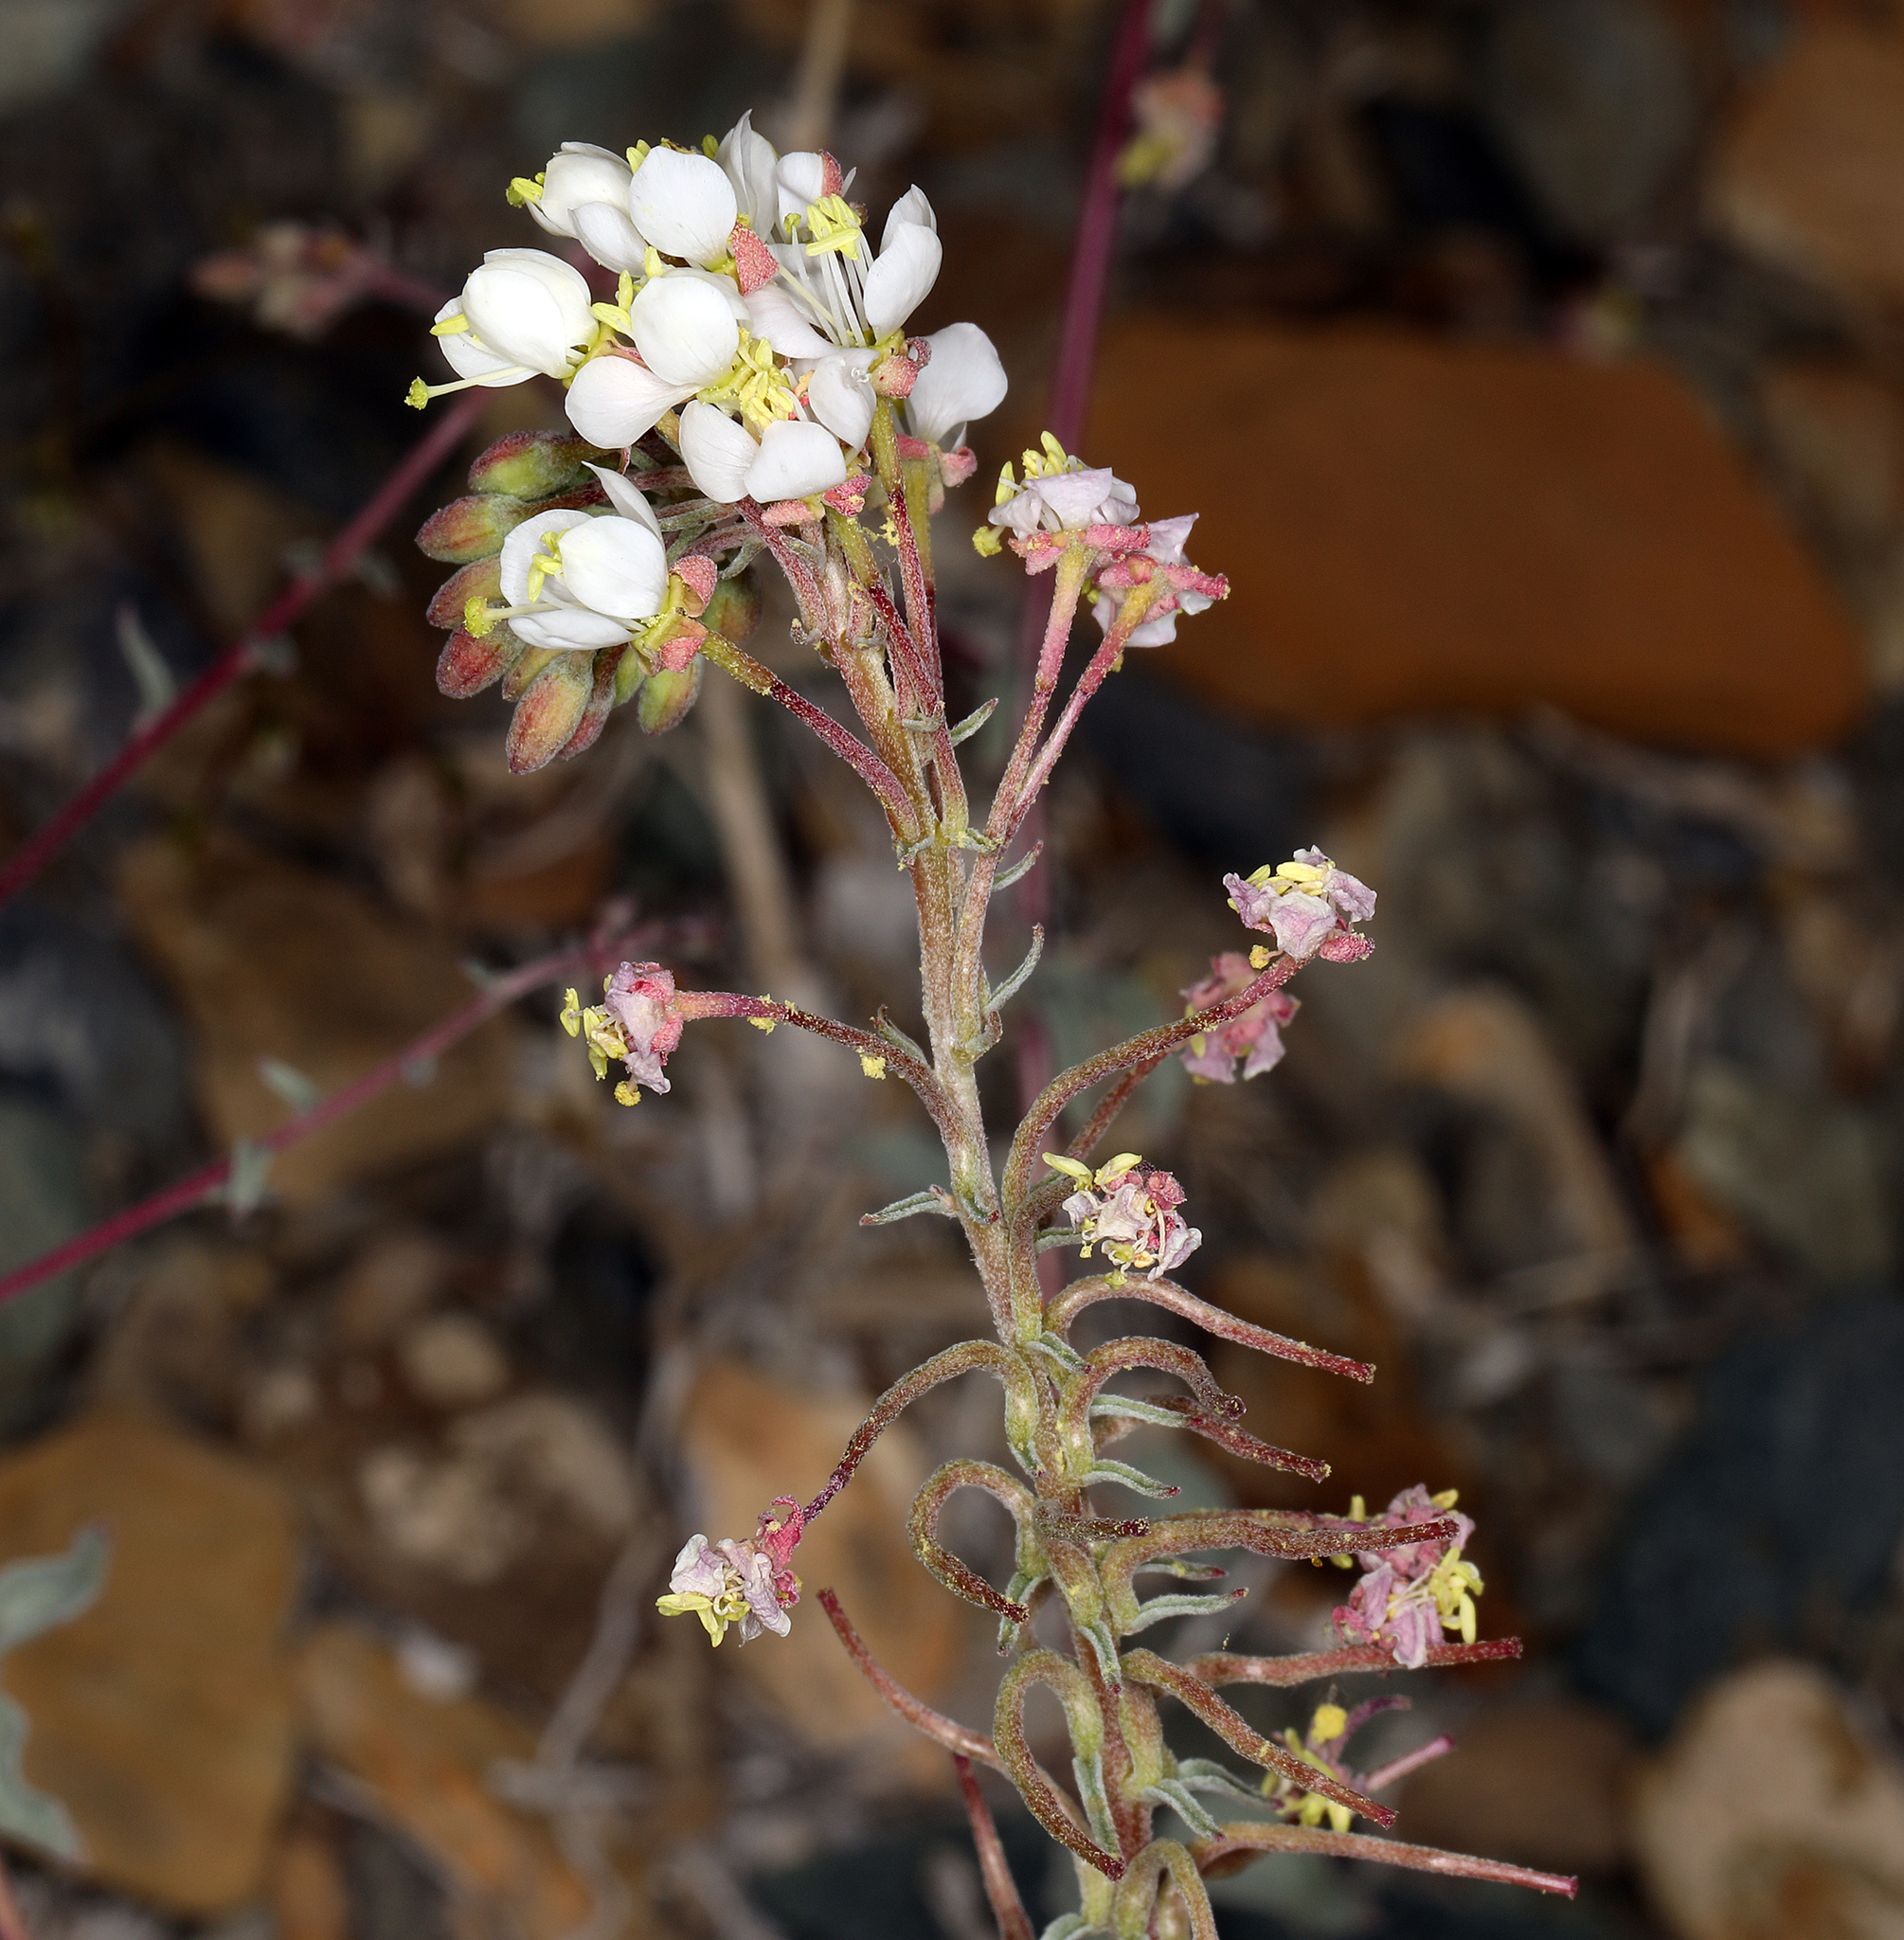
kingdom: Plantae
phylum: Tracheophyta
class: Magnoliopsida
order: Myrtales
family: Onagraceae
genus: Eremothera
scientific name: Eremothera boothii
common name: Booth's evening primrose
